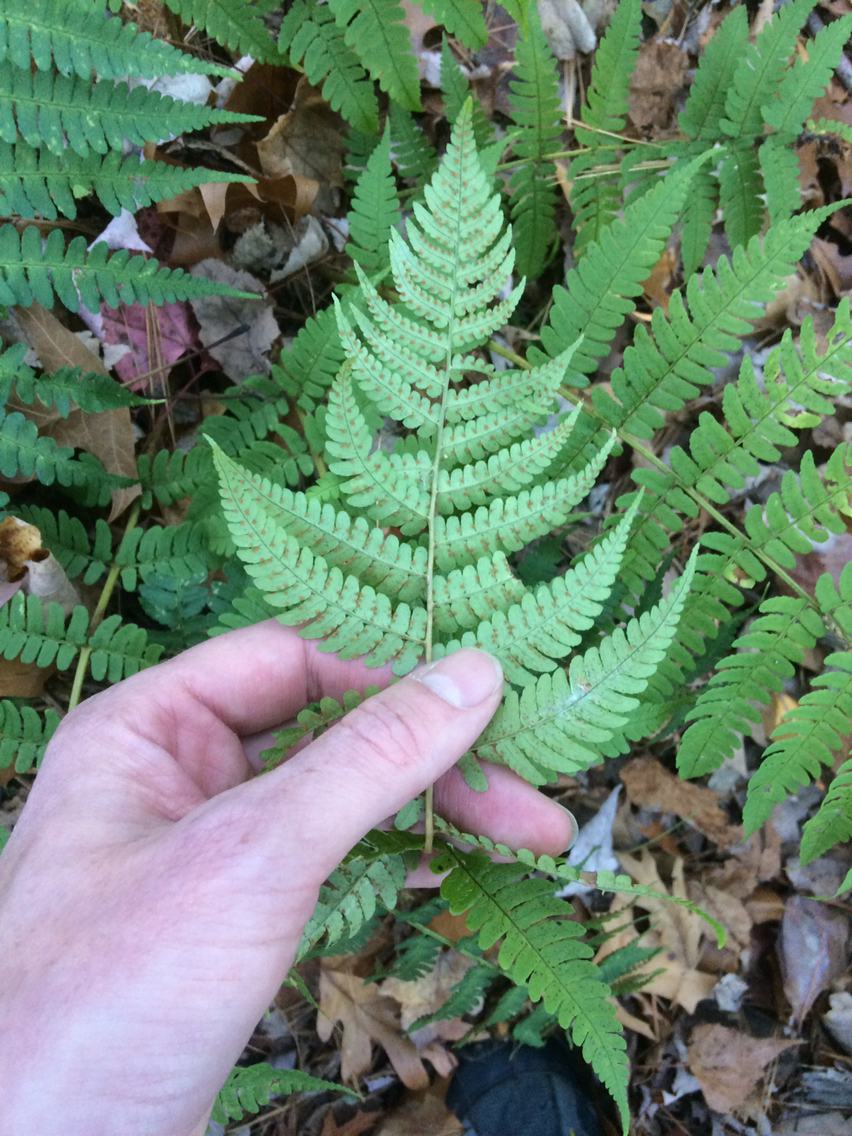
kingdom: Plantae
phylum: Tracheophyta
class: Polypodiopsida
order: Polypodiales
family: Dryopteridaceae
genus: Dryopteris
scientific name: Dryopteris marginalis
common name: Marginal wood fern
